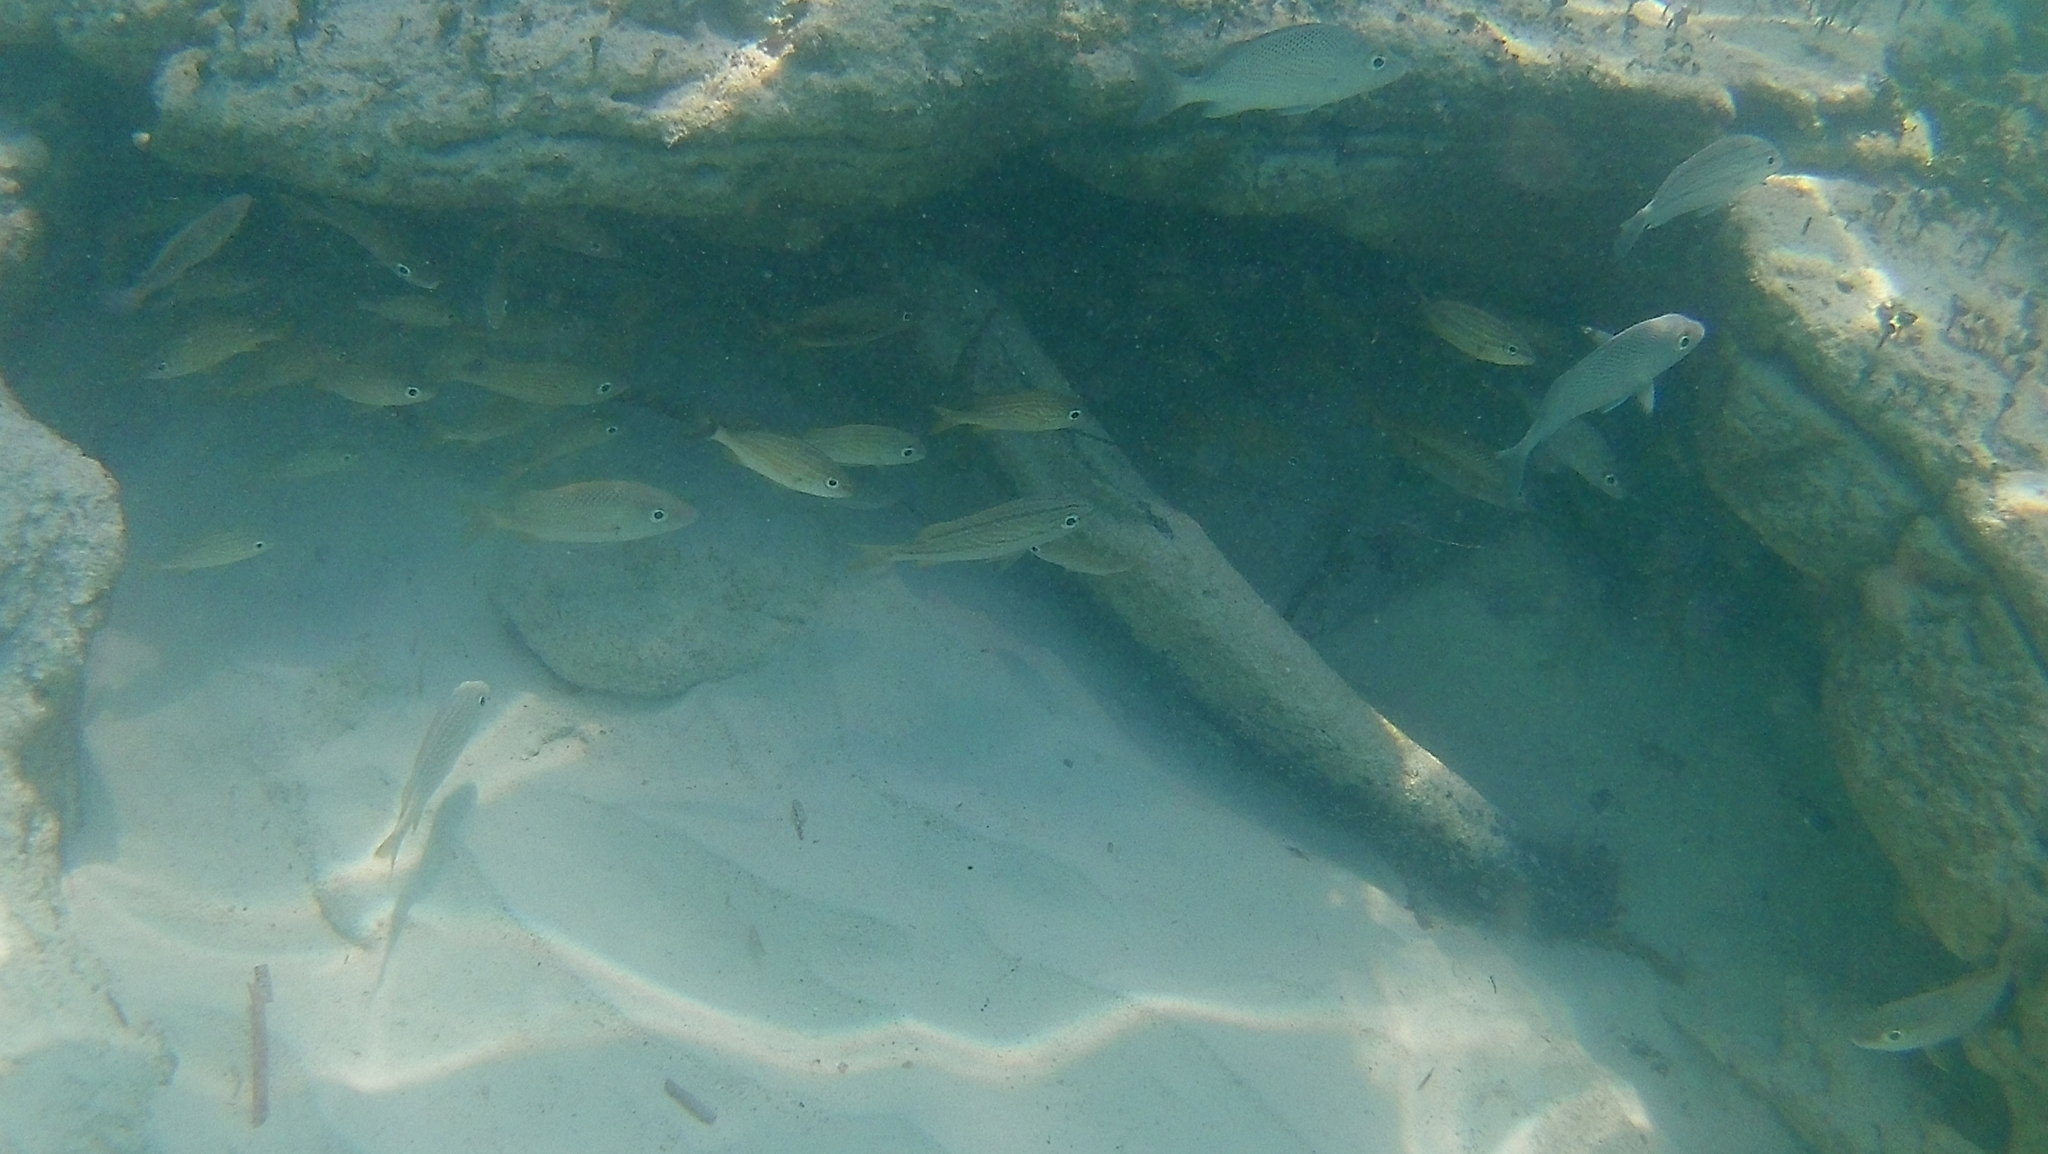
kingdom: Animalia
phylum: Chordata
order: Perciformes
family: Haemulidae
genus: Haemulon
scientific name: Haemulon flavolineatum
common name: French grunt
